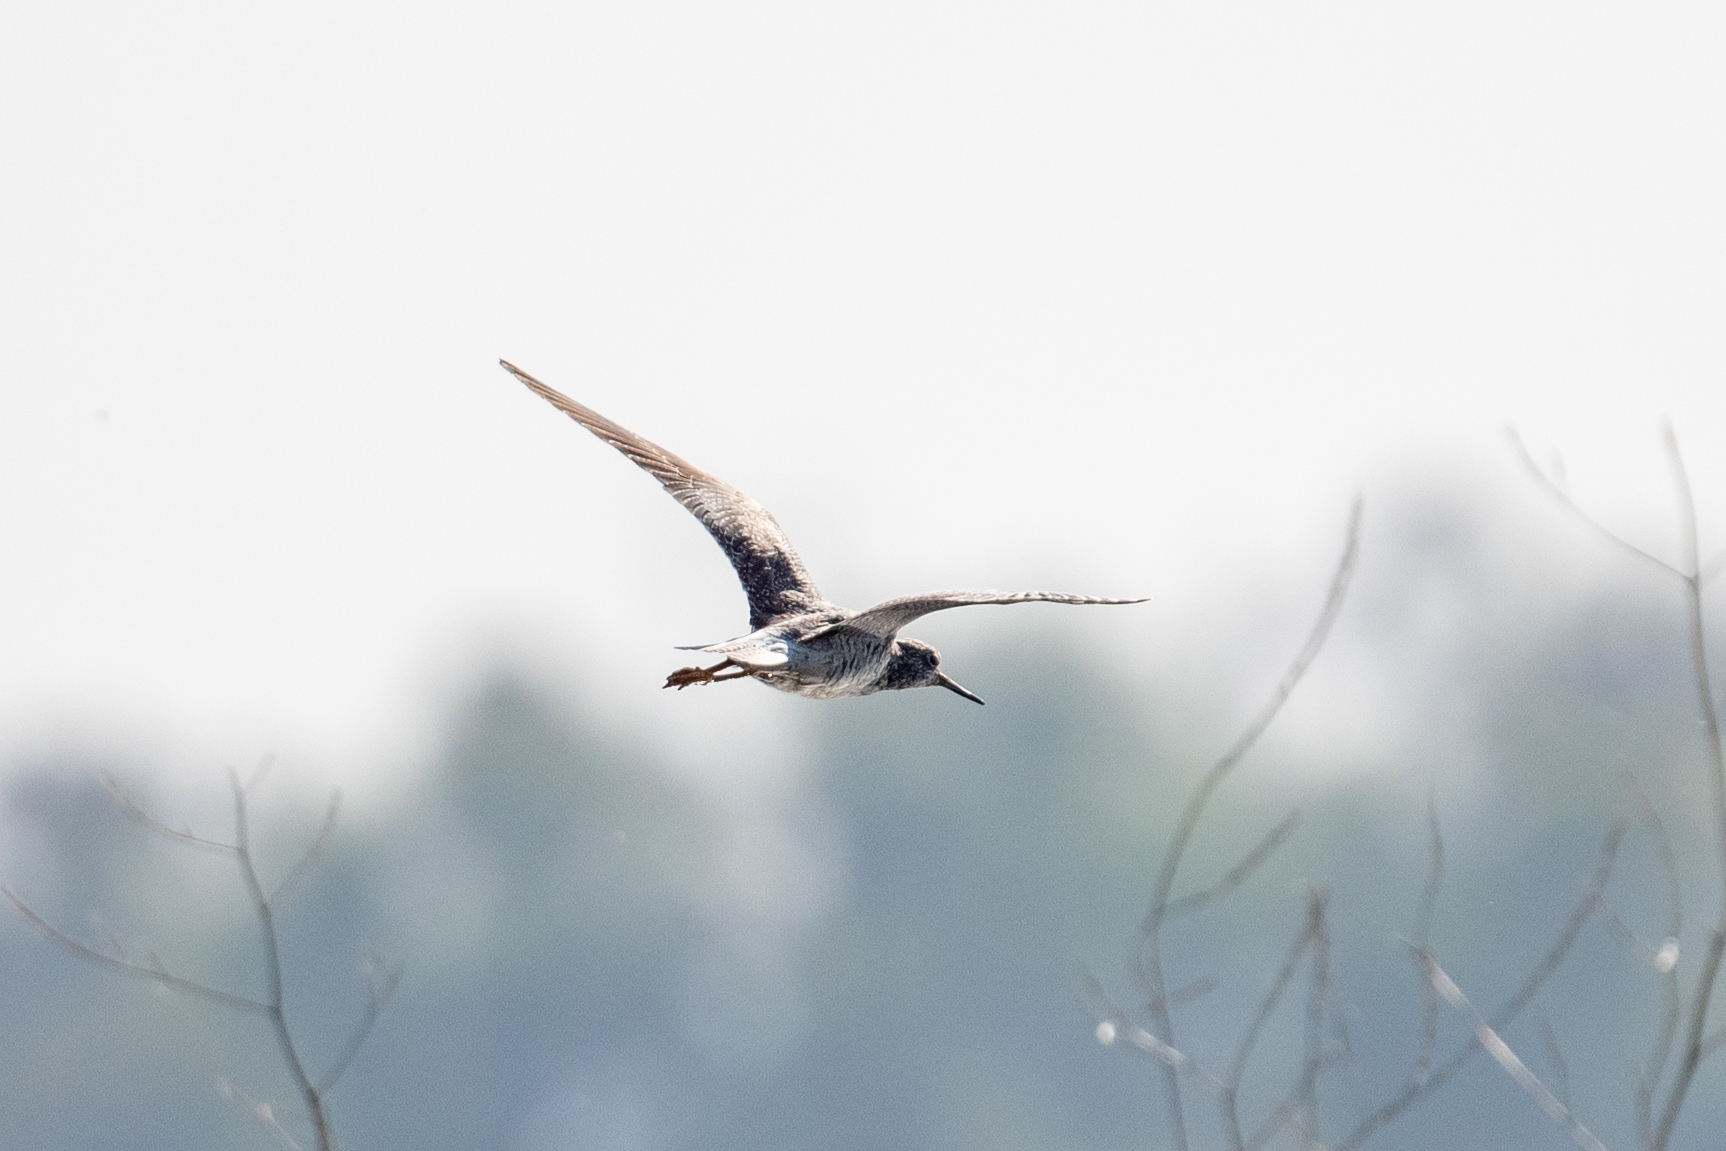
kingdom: Animalia
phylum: Chordata
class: Aves
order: Charadriiformes
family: Scolopacidae
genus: Tringa
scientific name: Tringa melanoleuca
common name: Greater yellowlegs
